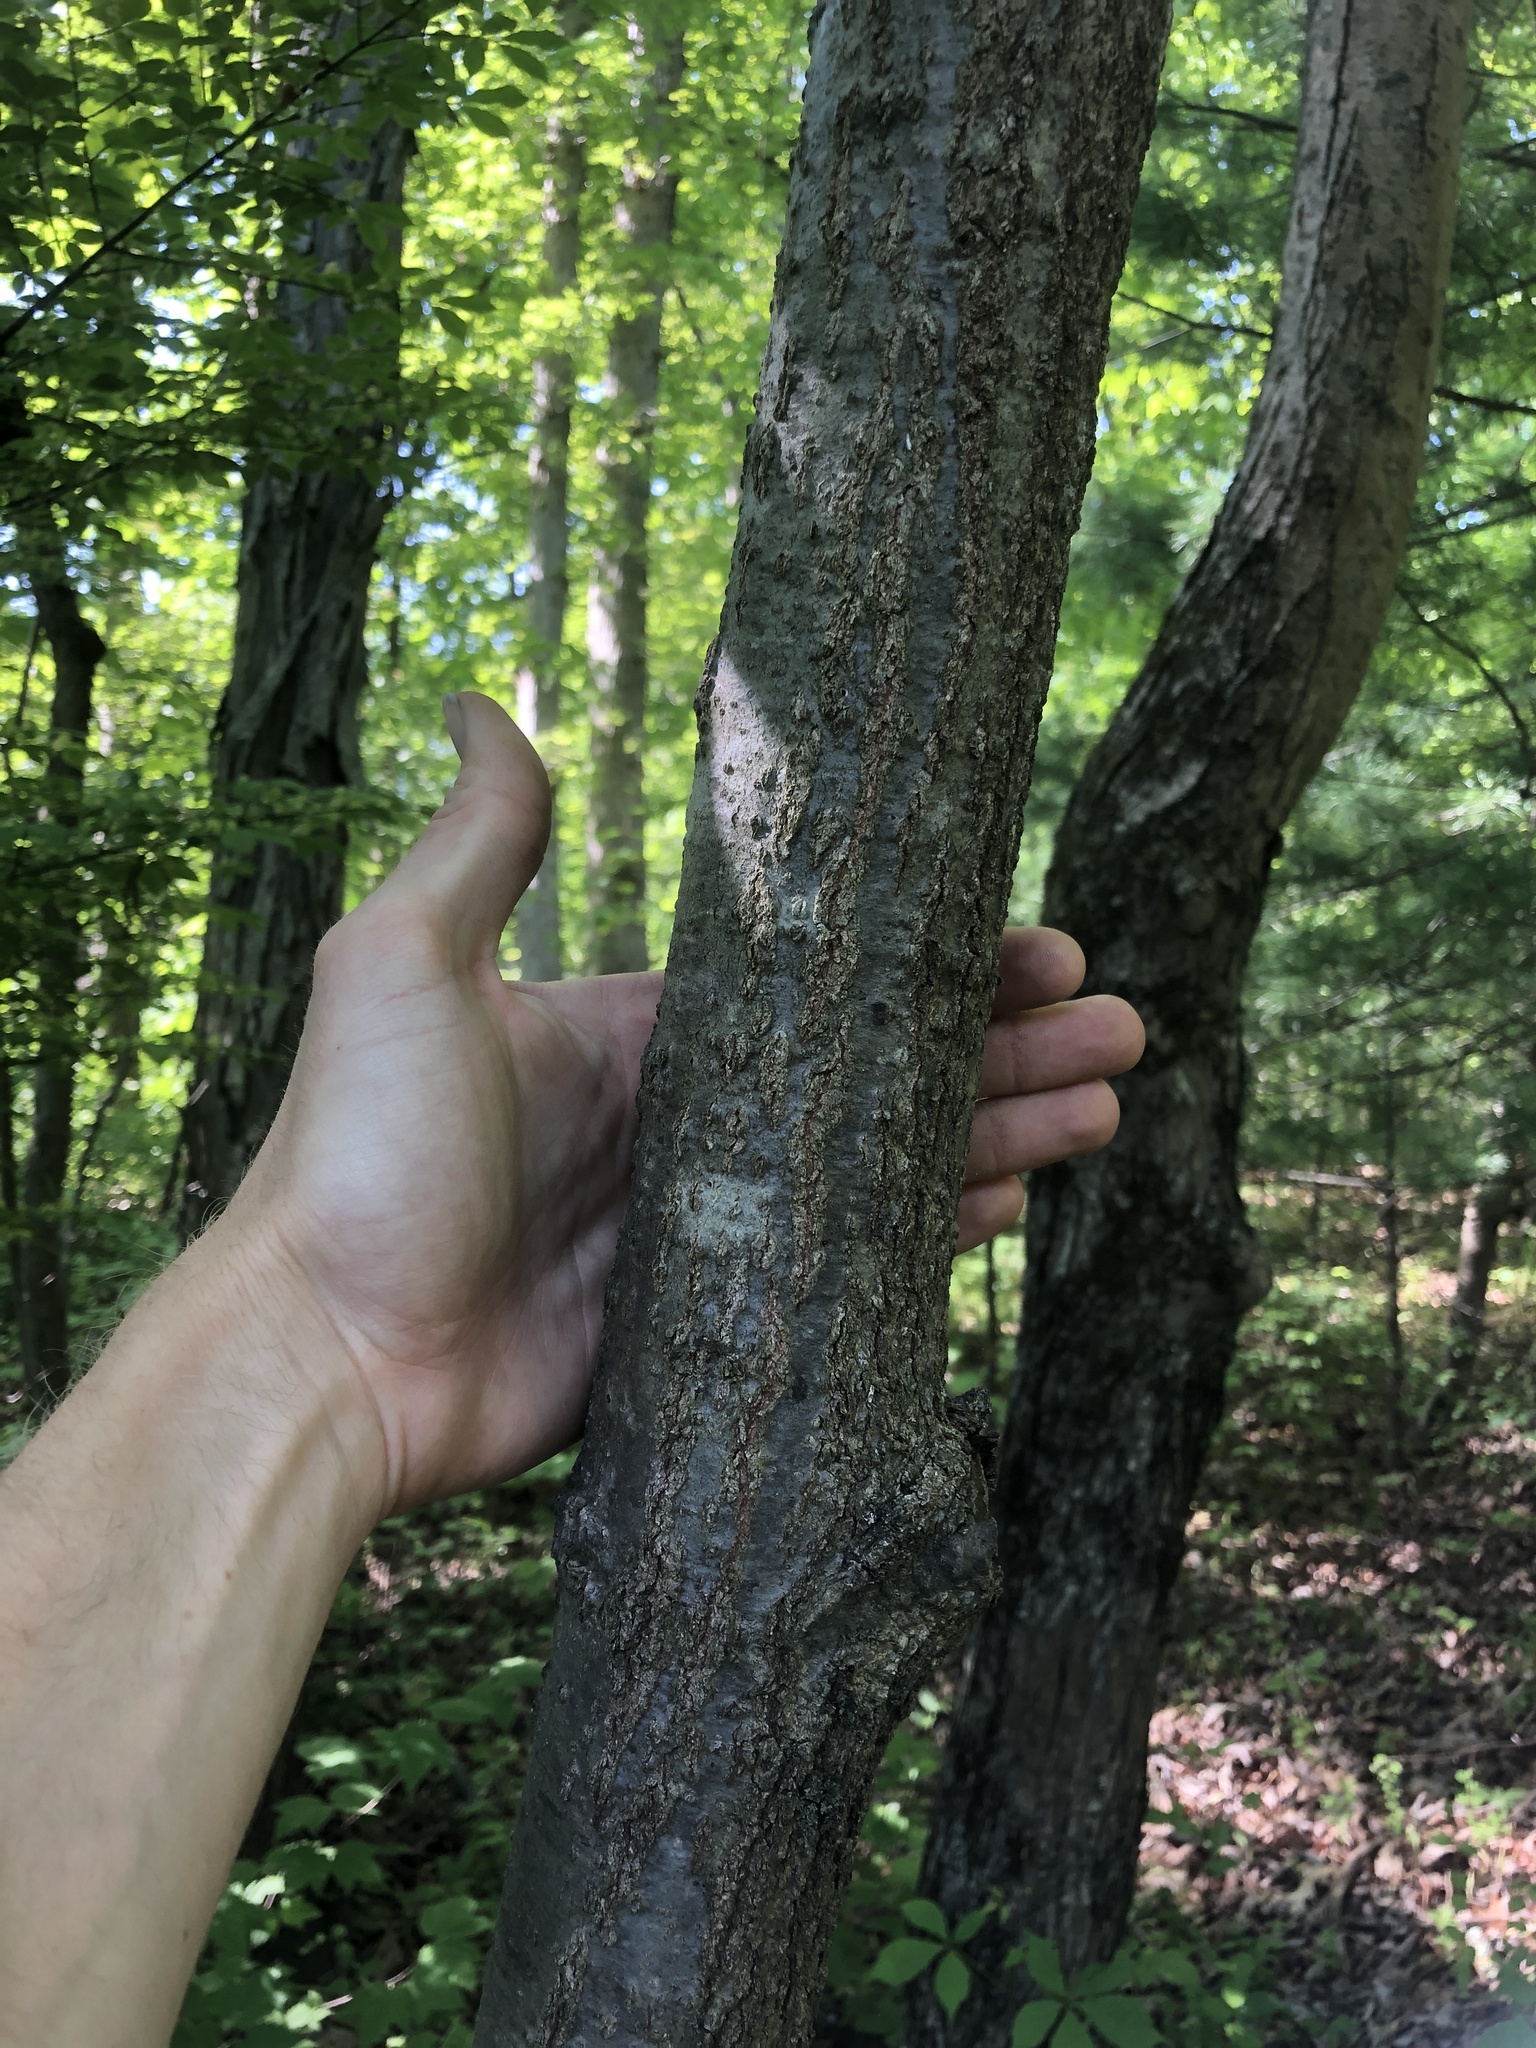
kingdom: Plantae
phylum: Tracheophyta
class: Magnoliopsida
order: Fagales
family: Fagaceae
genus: Quercus
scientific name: Quercus rubra
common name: Red oak
